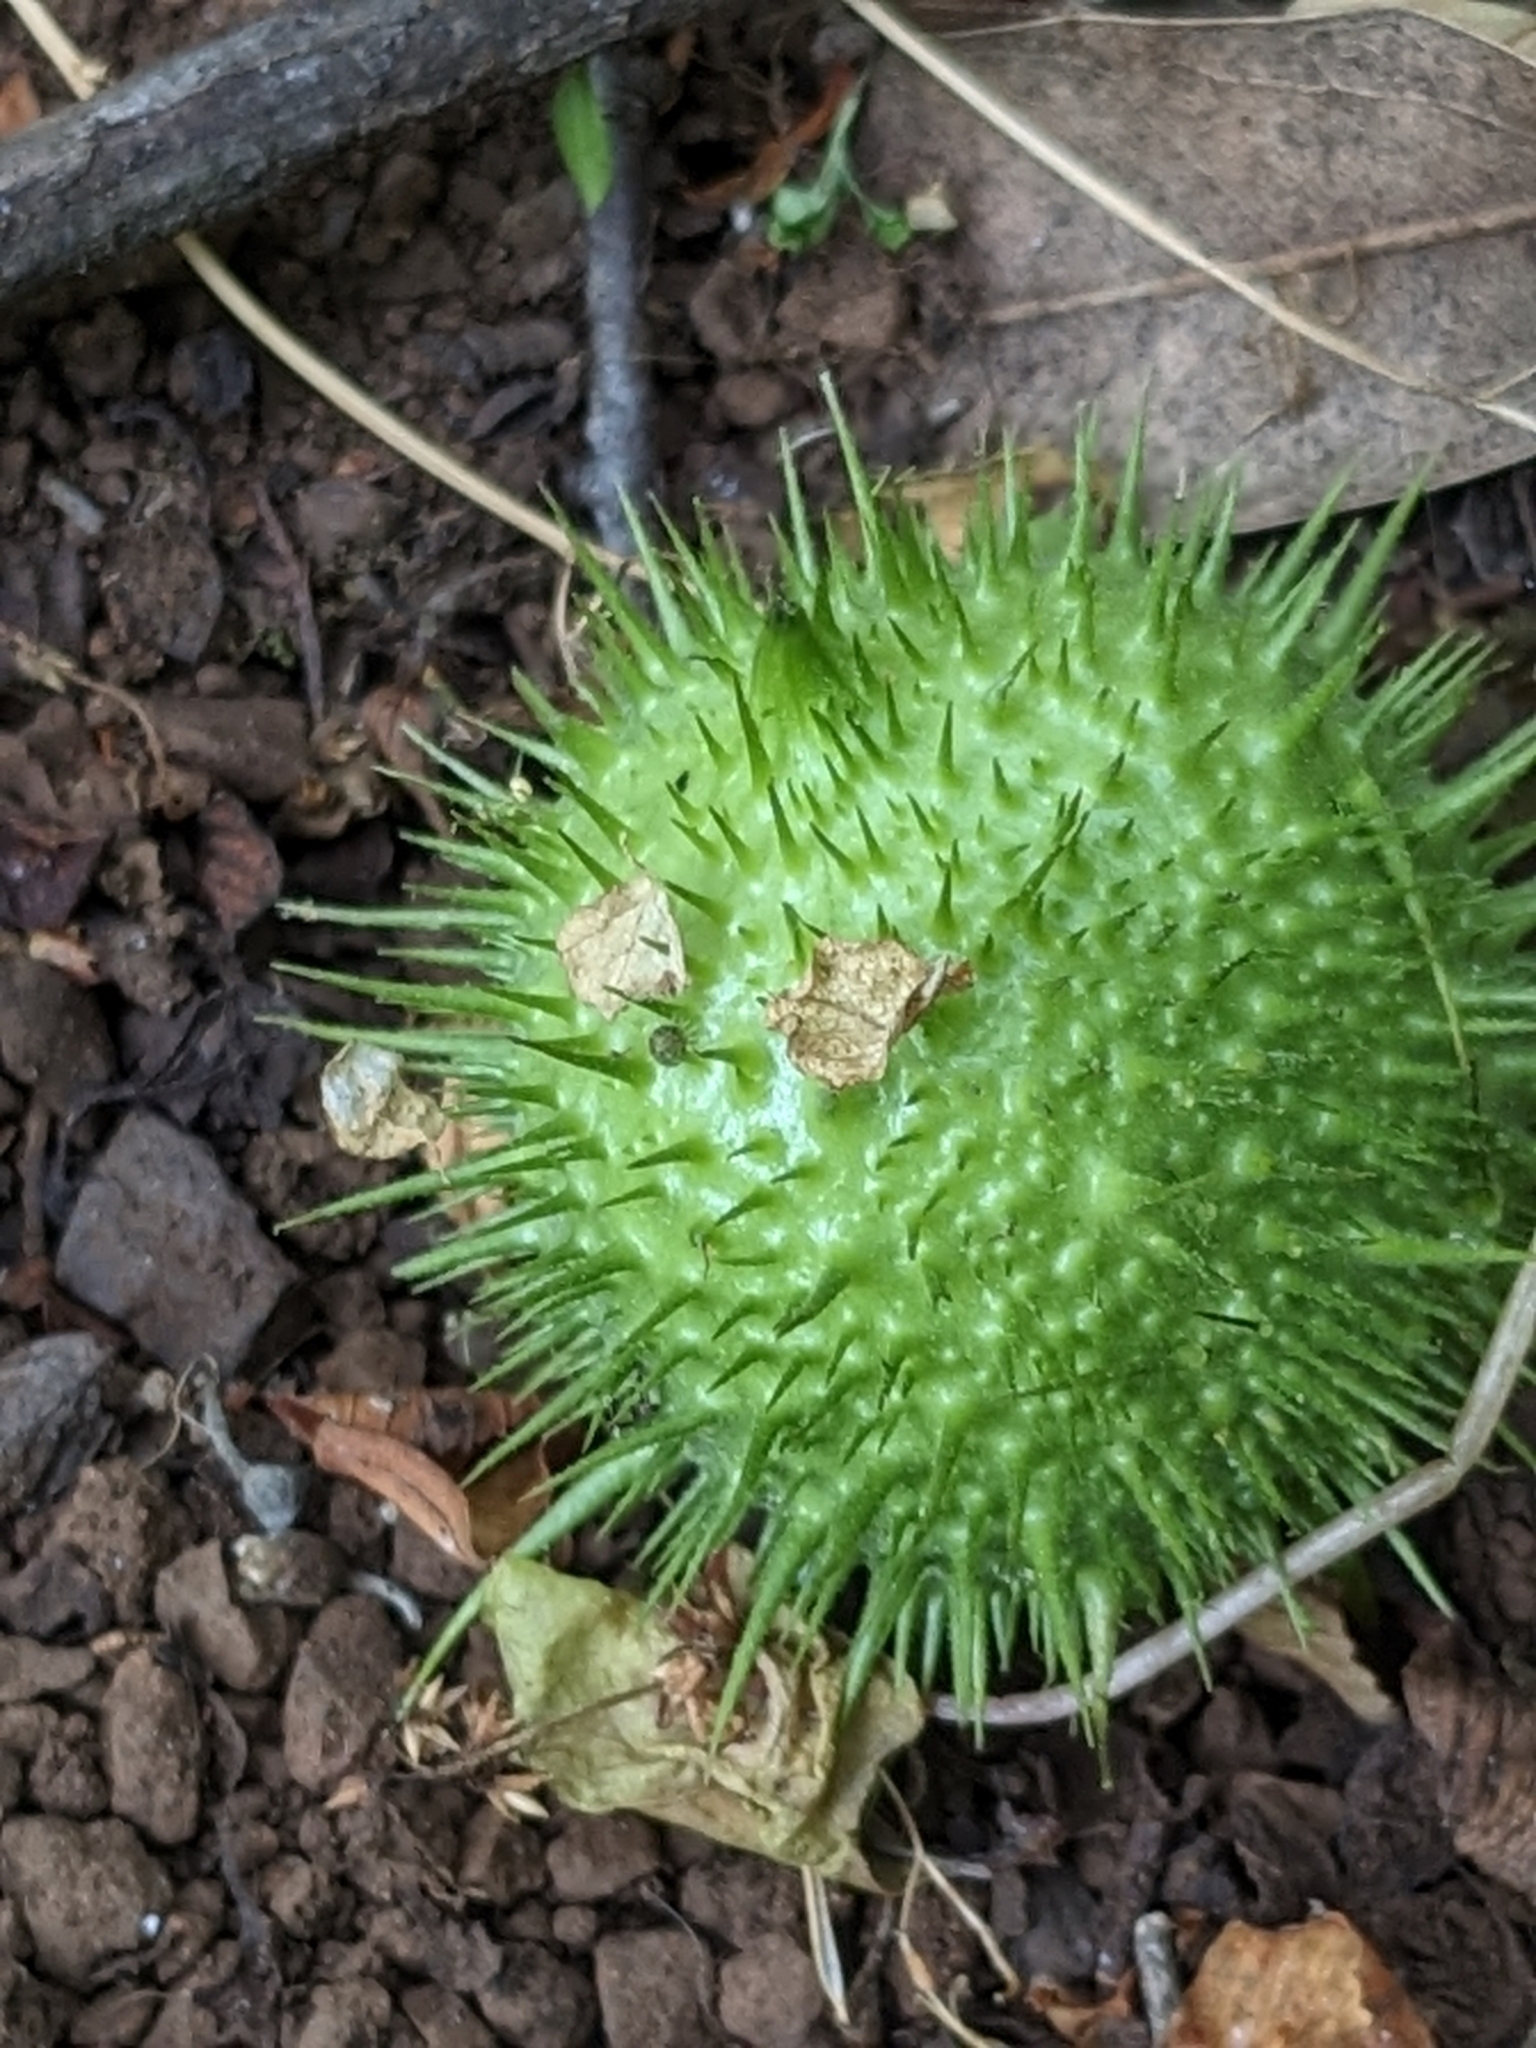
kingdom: Plantae
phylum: Tracheophyta
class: Magnoliopsida
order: Cucurbitales
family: Cucurbitaceae
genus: Marah
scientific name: Marah fabacea
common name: California manroot
